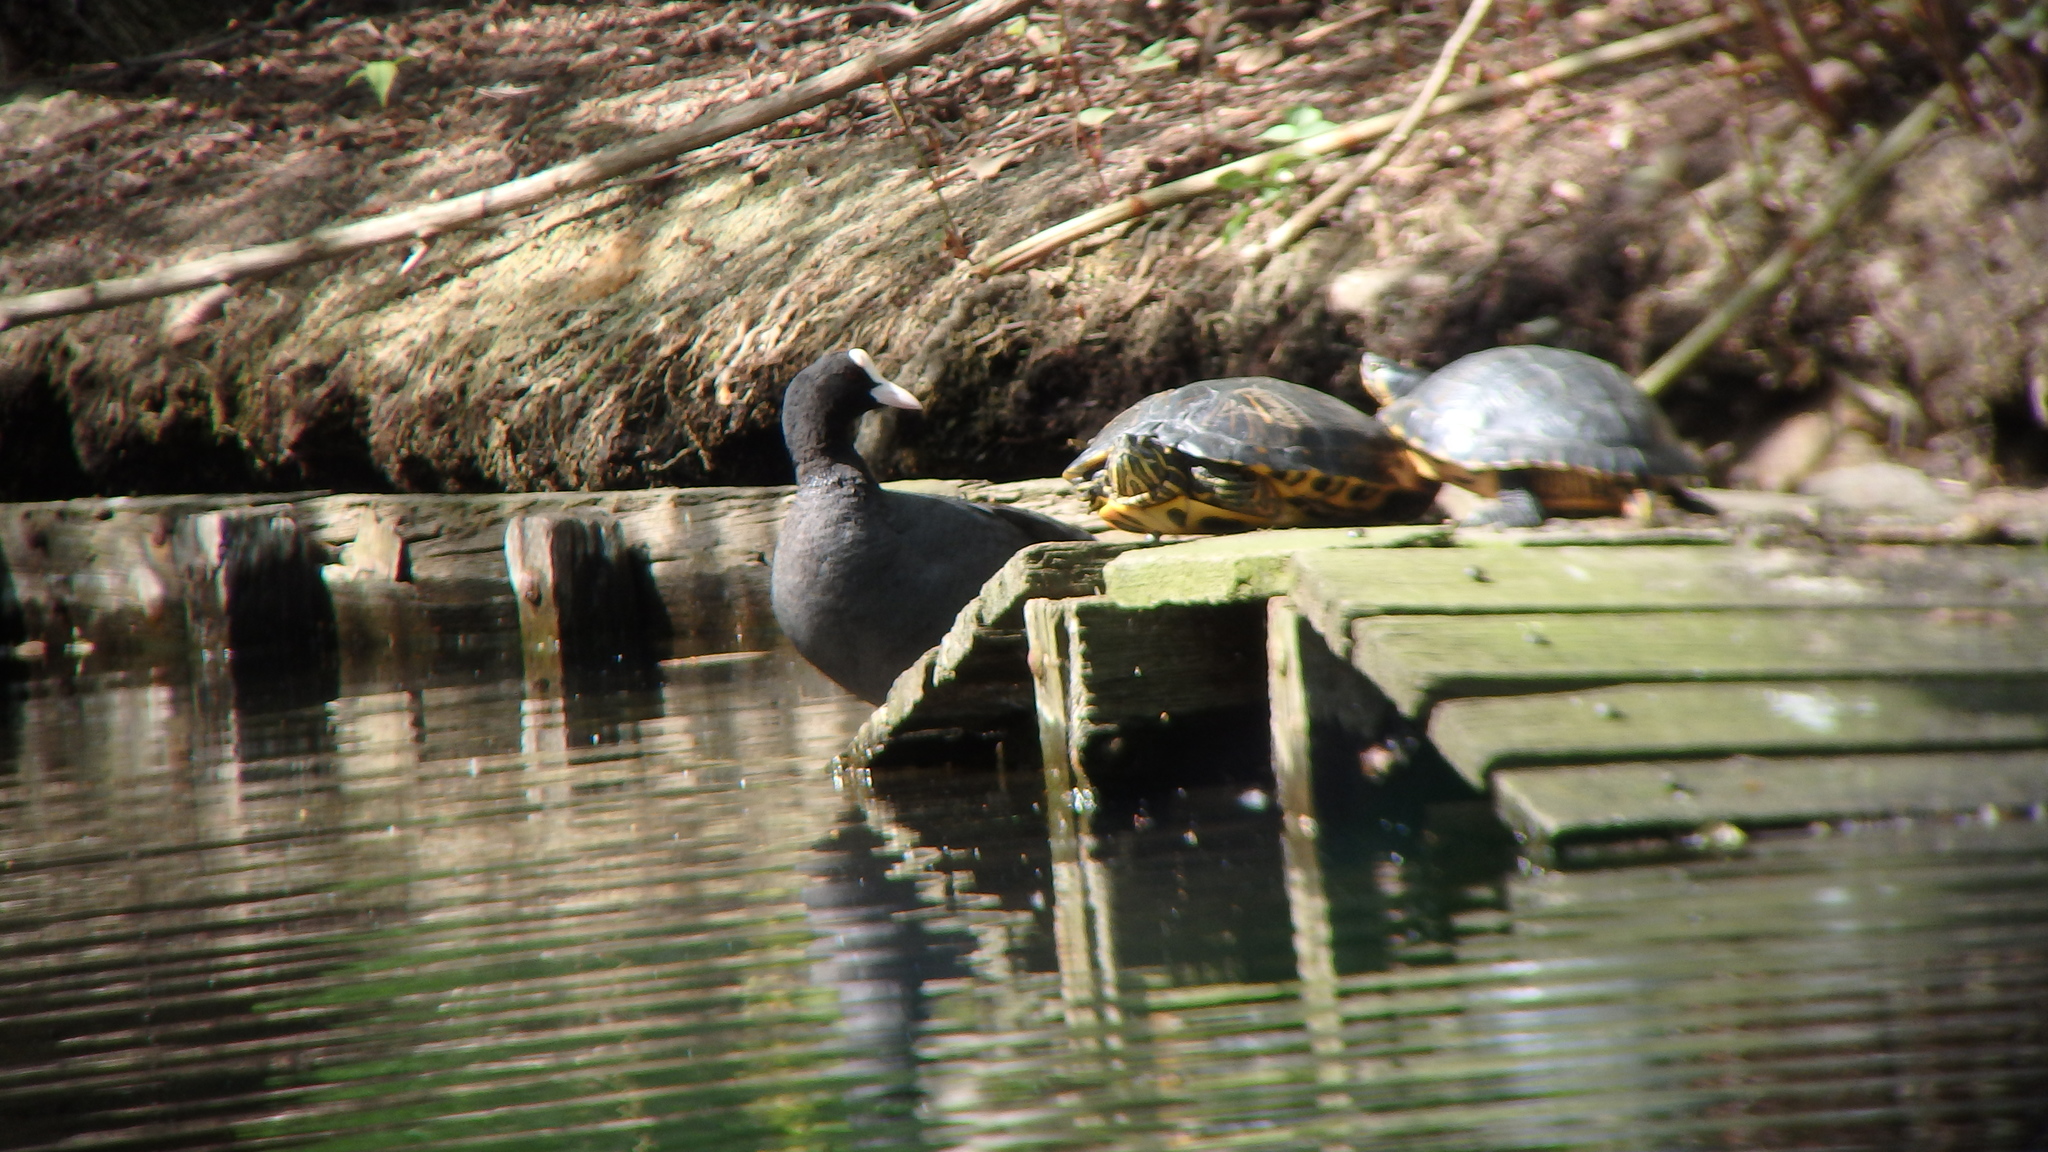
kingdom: Animalia
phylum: Chordata
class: Testudines
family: Emydidae
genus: Trachemys
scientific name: Trachemys scripta
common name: Slider
